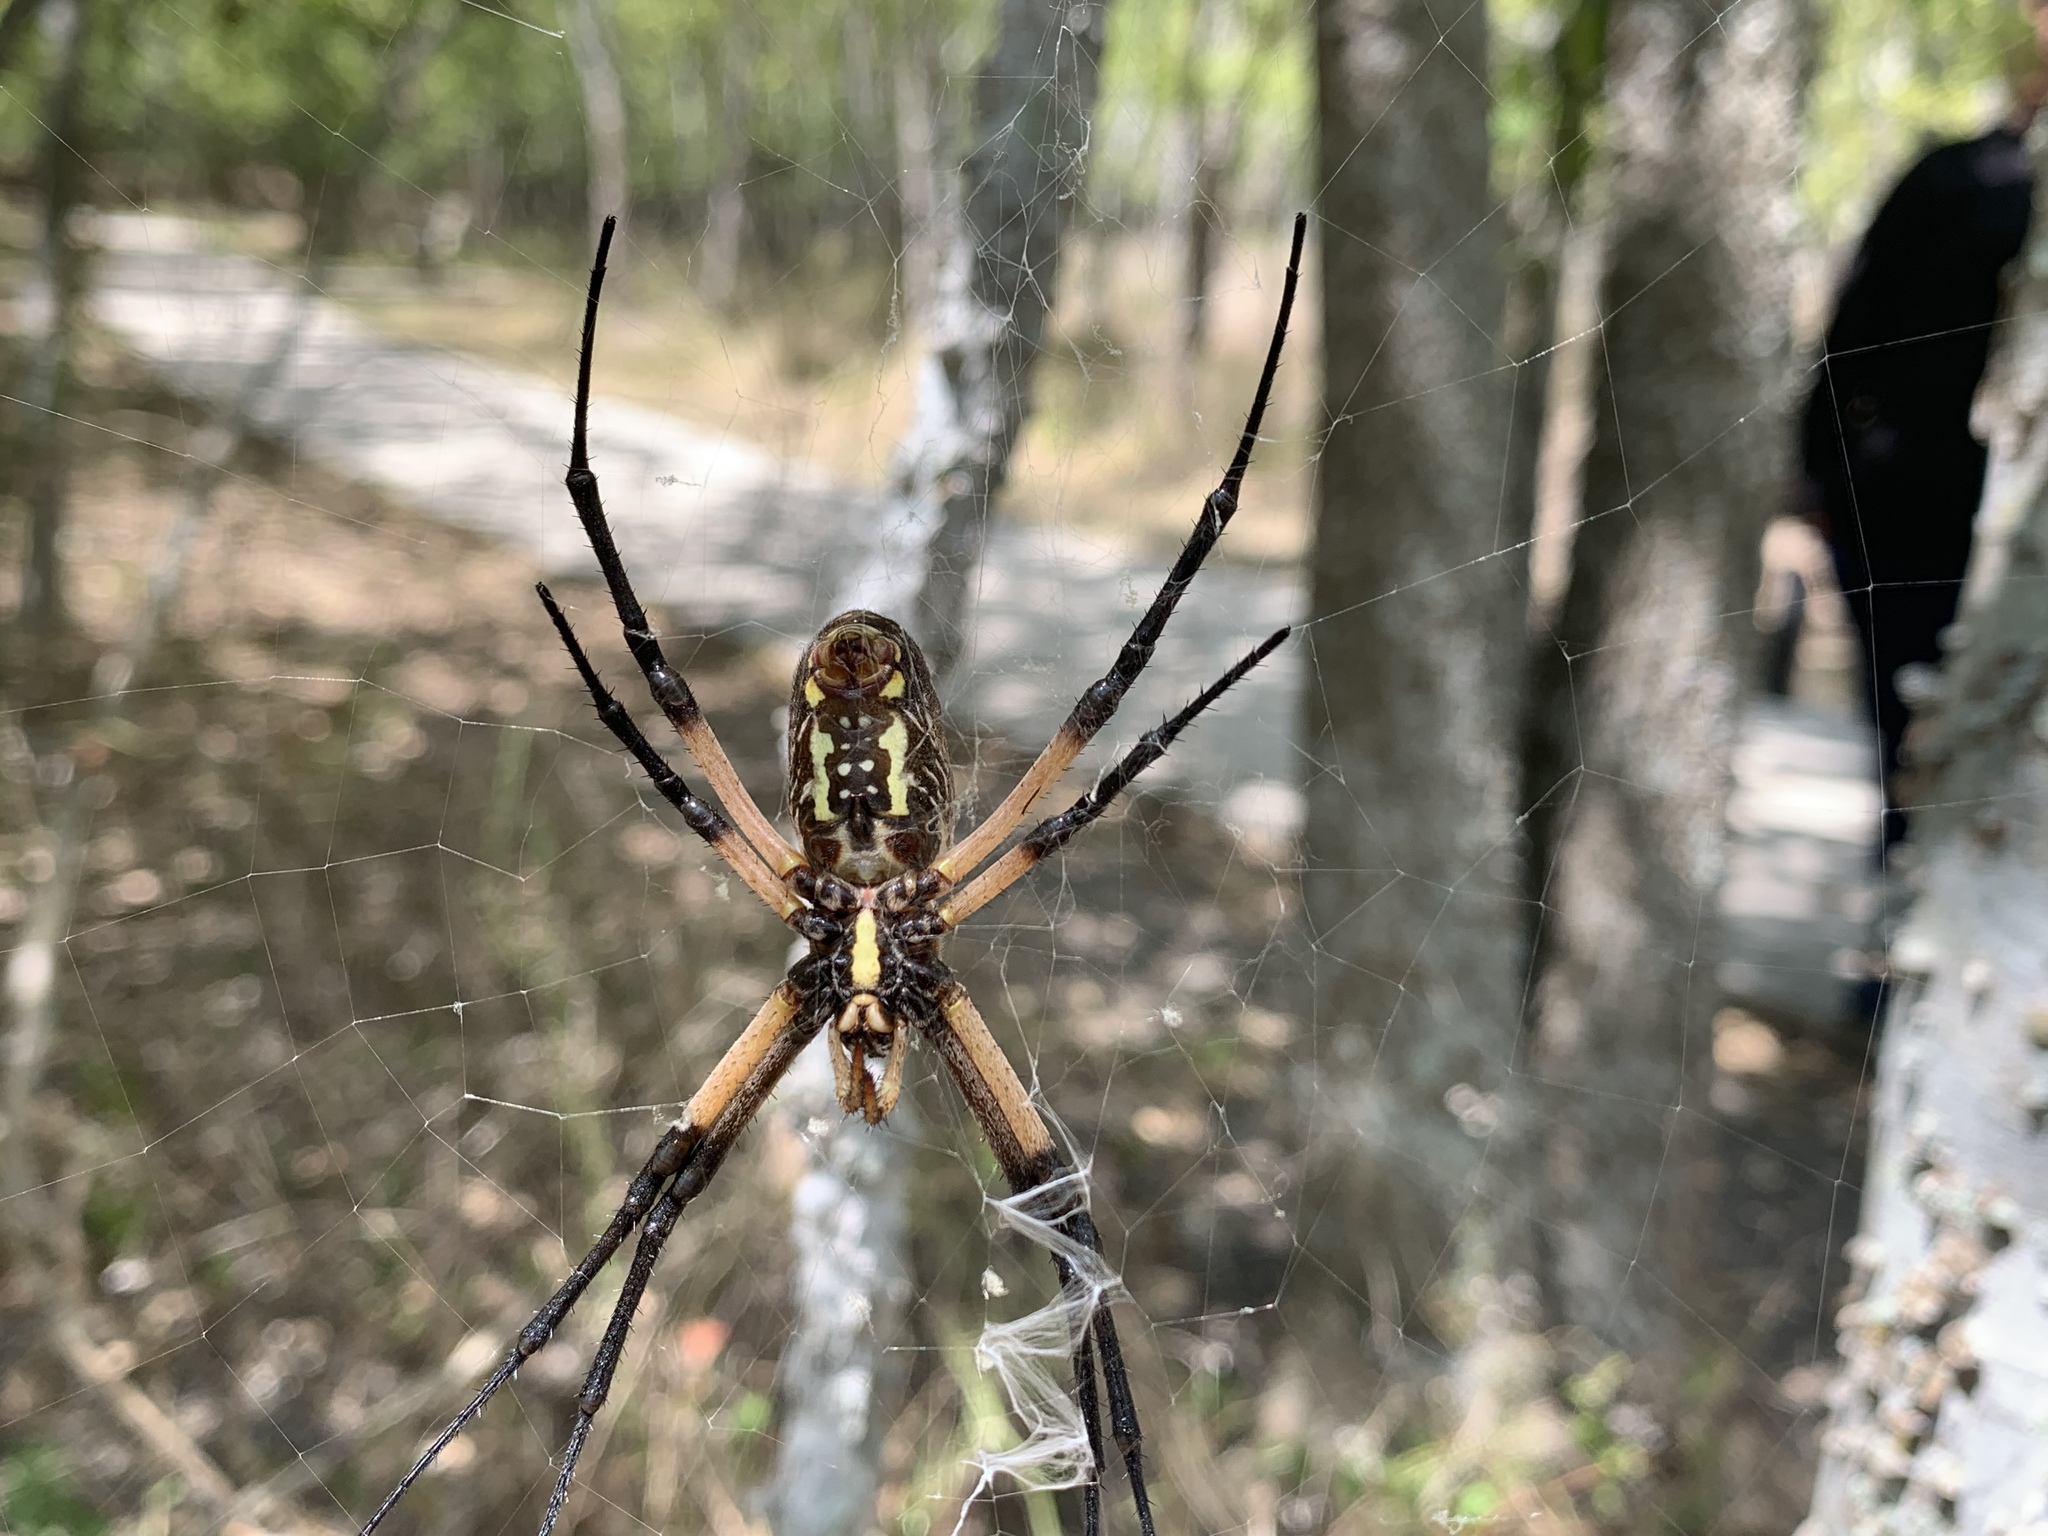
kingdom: Animalia
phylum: Arthropoda
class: Arachnida
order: Araneae
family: Araneidae
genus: Argiope
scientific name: Argiope aurantia
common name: Orb weavers
